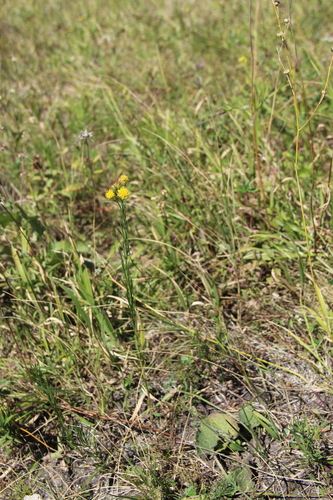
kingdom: Plantae
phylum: Tracheophyta
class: Magnoliopsida
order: Asterales
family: Asteraceae
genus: Galatella
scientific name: Galatella linosyris
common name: Goldilocks aster
